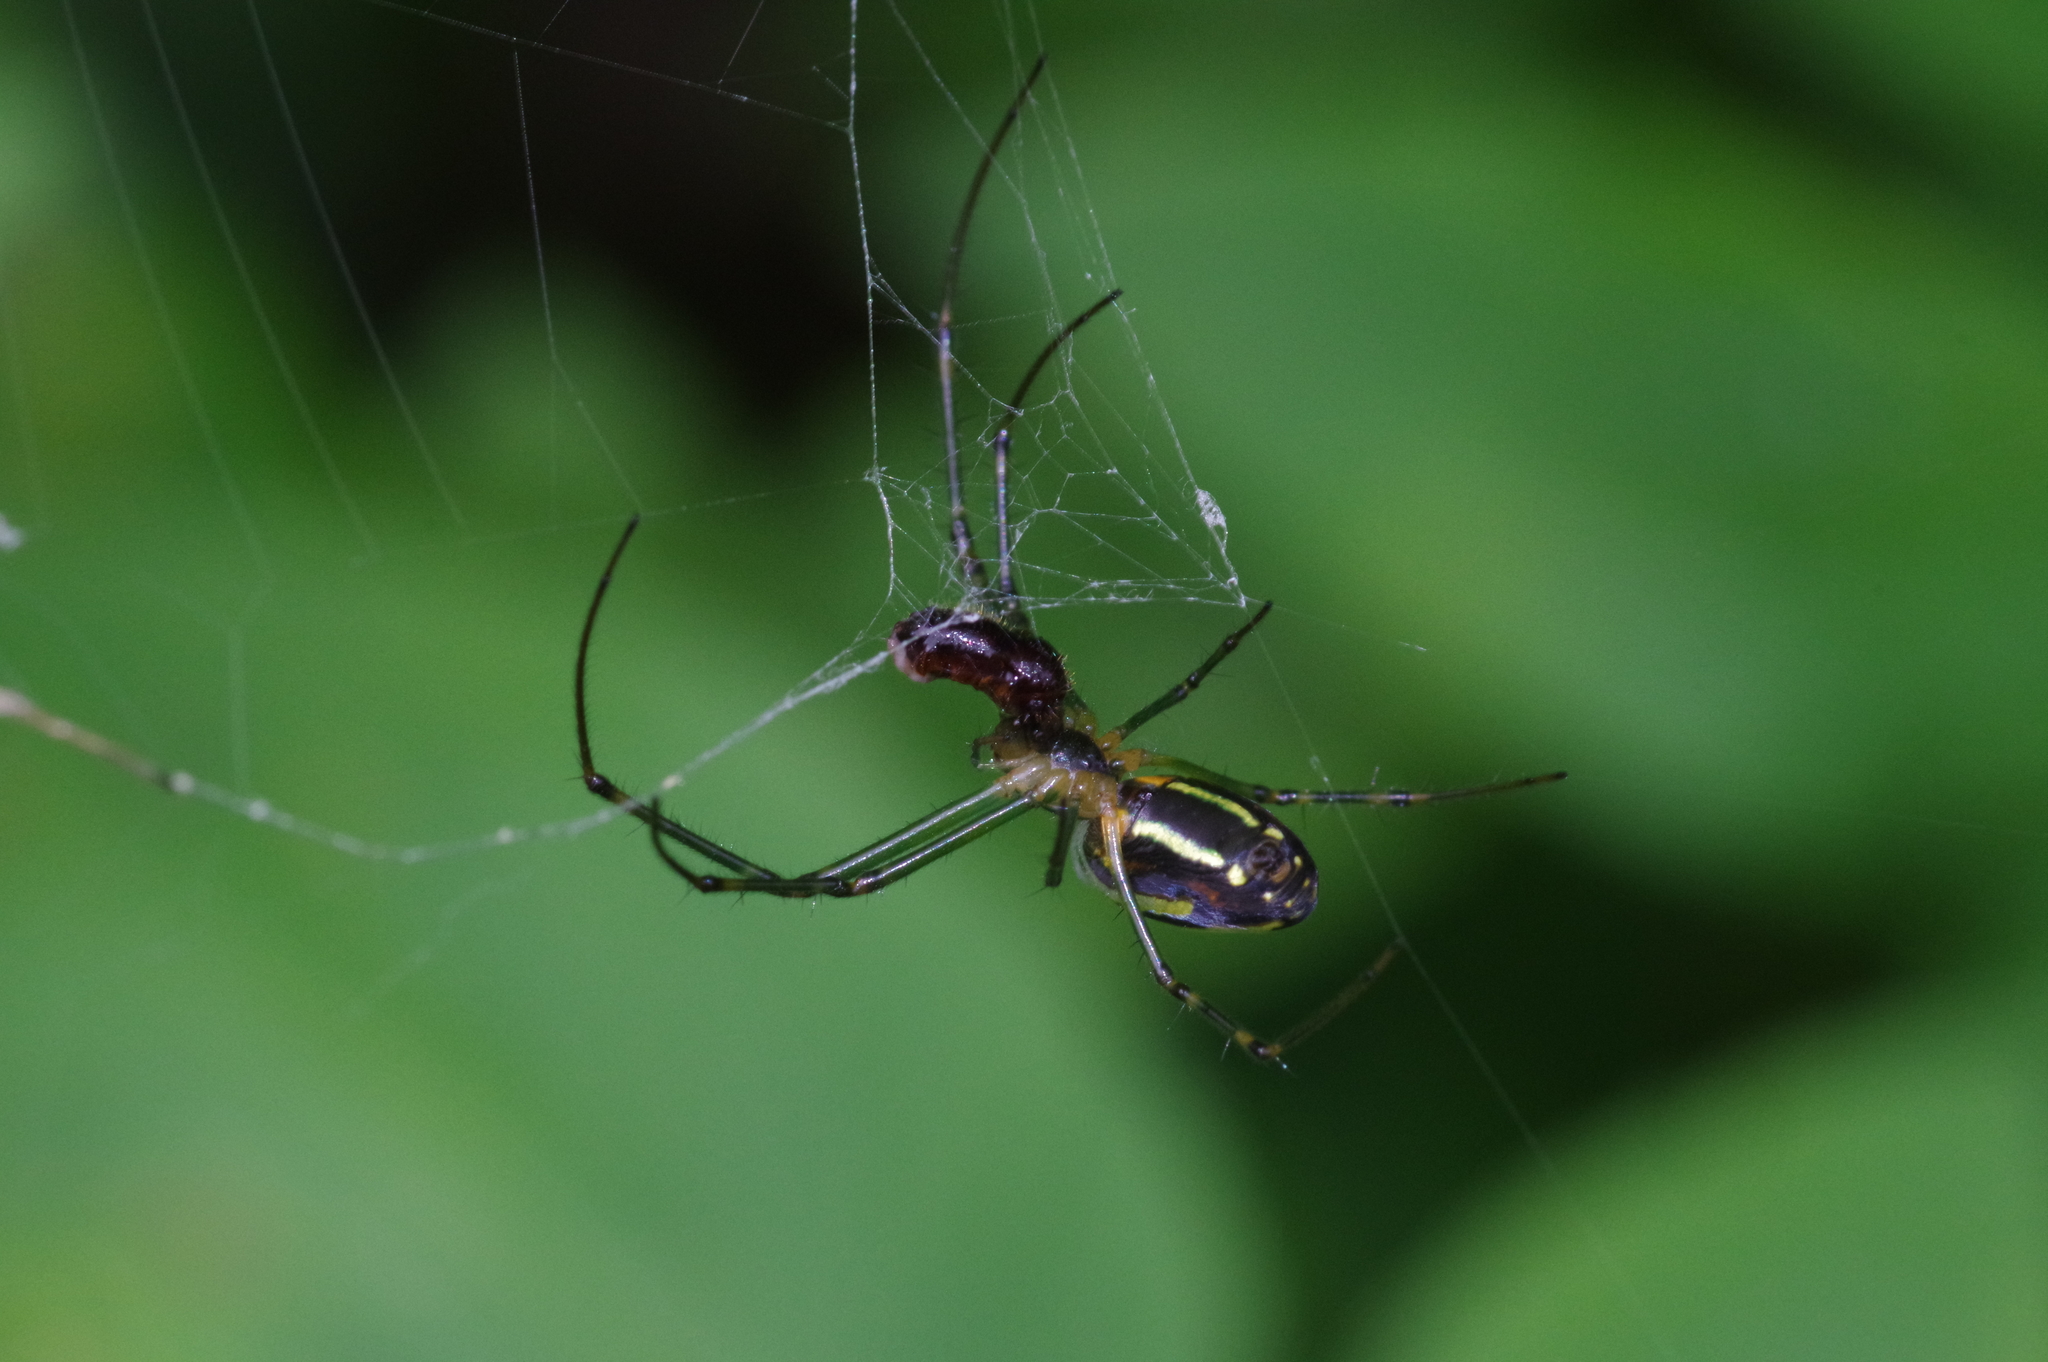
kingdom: Animalia
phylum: Arthropoda
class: Arachnida
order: Araneae
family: Tetragnathidae
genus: Leucauge
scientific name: Leucauge blanda
